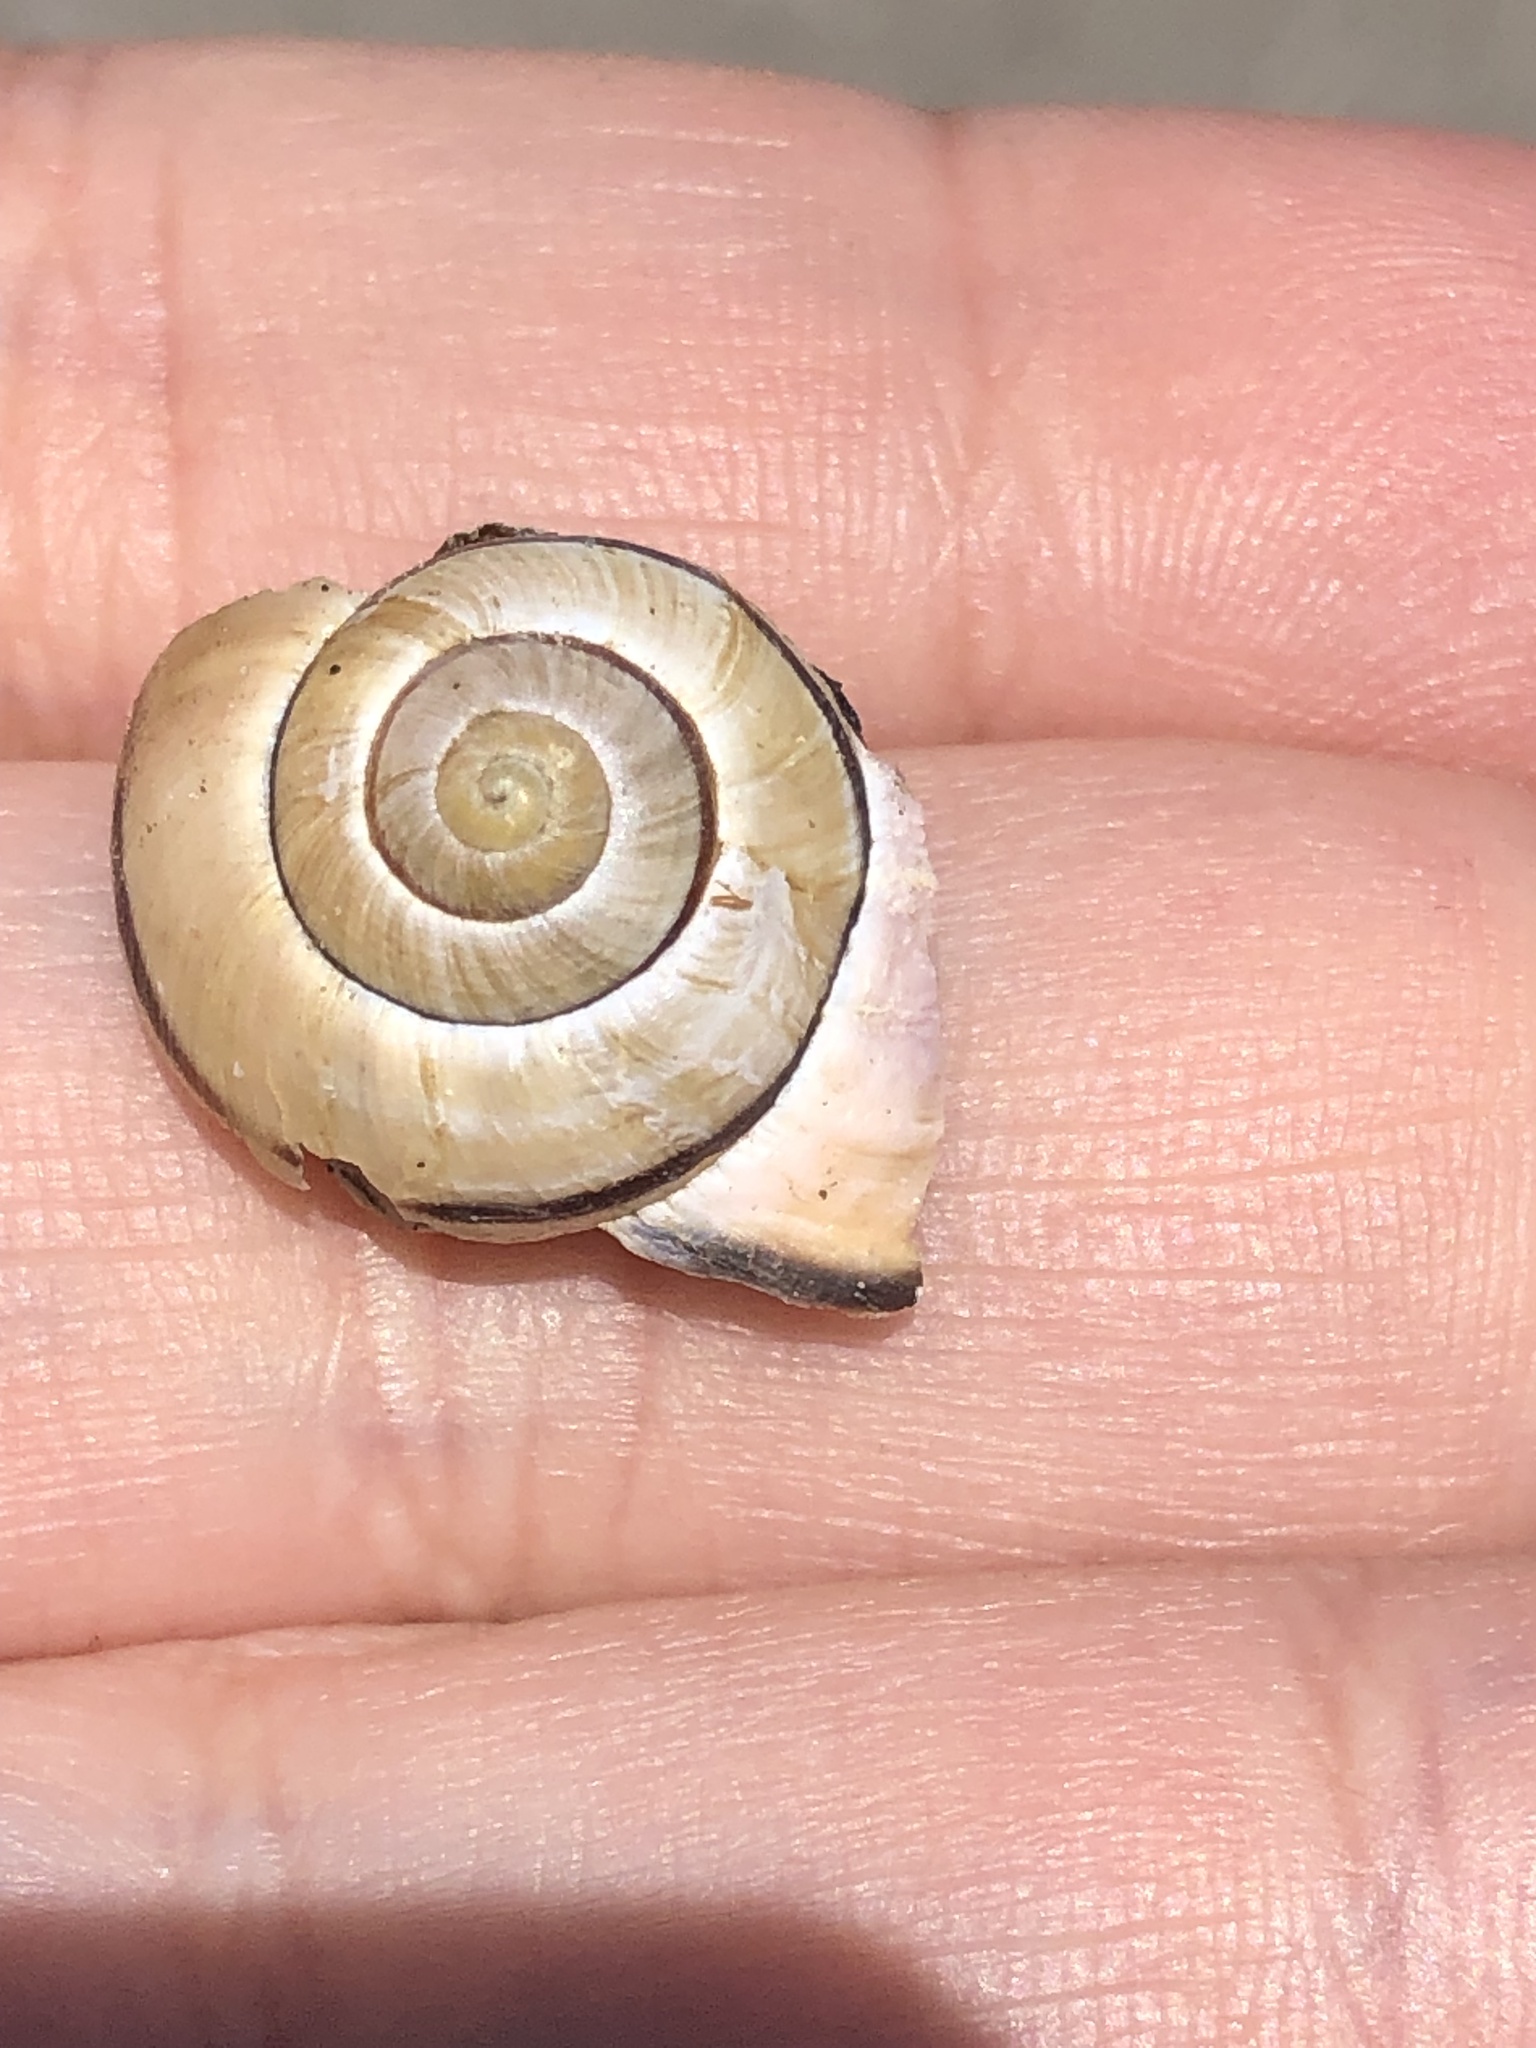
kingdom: Animalia
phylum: Mollusca
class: Gastropoda
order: Stylommatophora
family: Helicidae
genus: Cepaea
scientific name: Cepaea nemoralis
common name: Grovesnail
